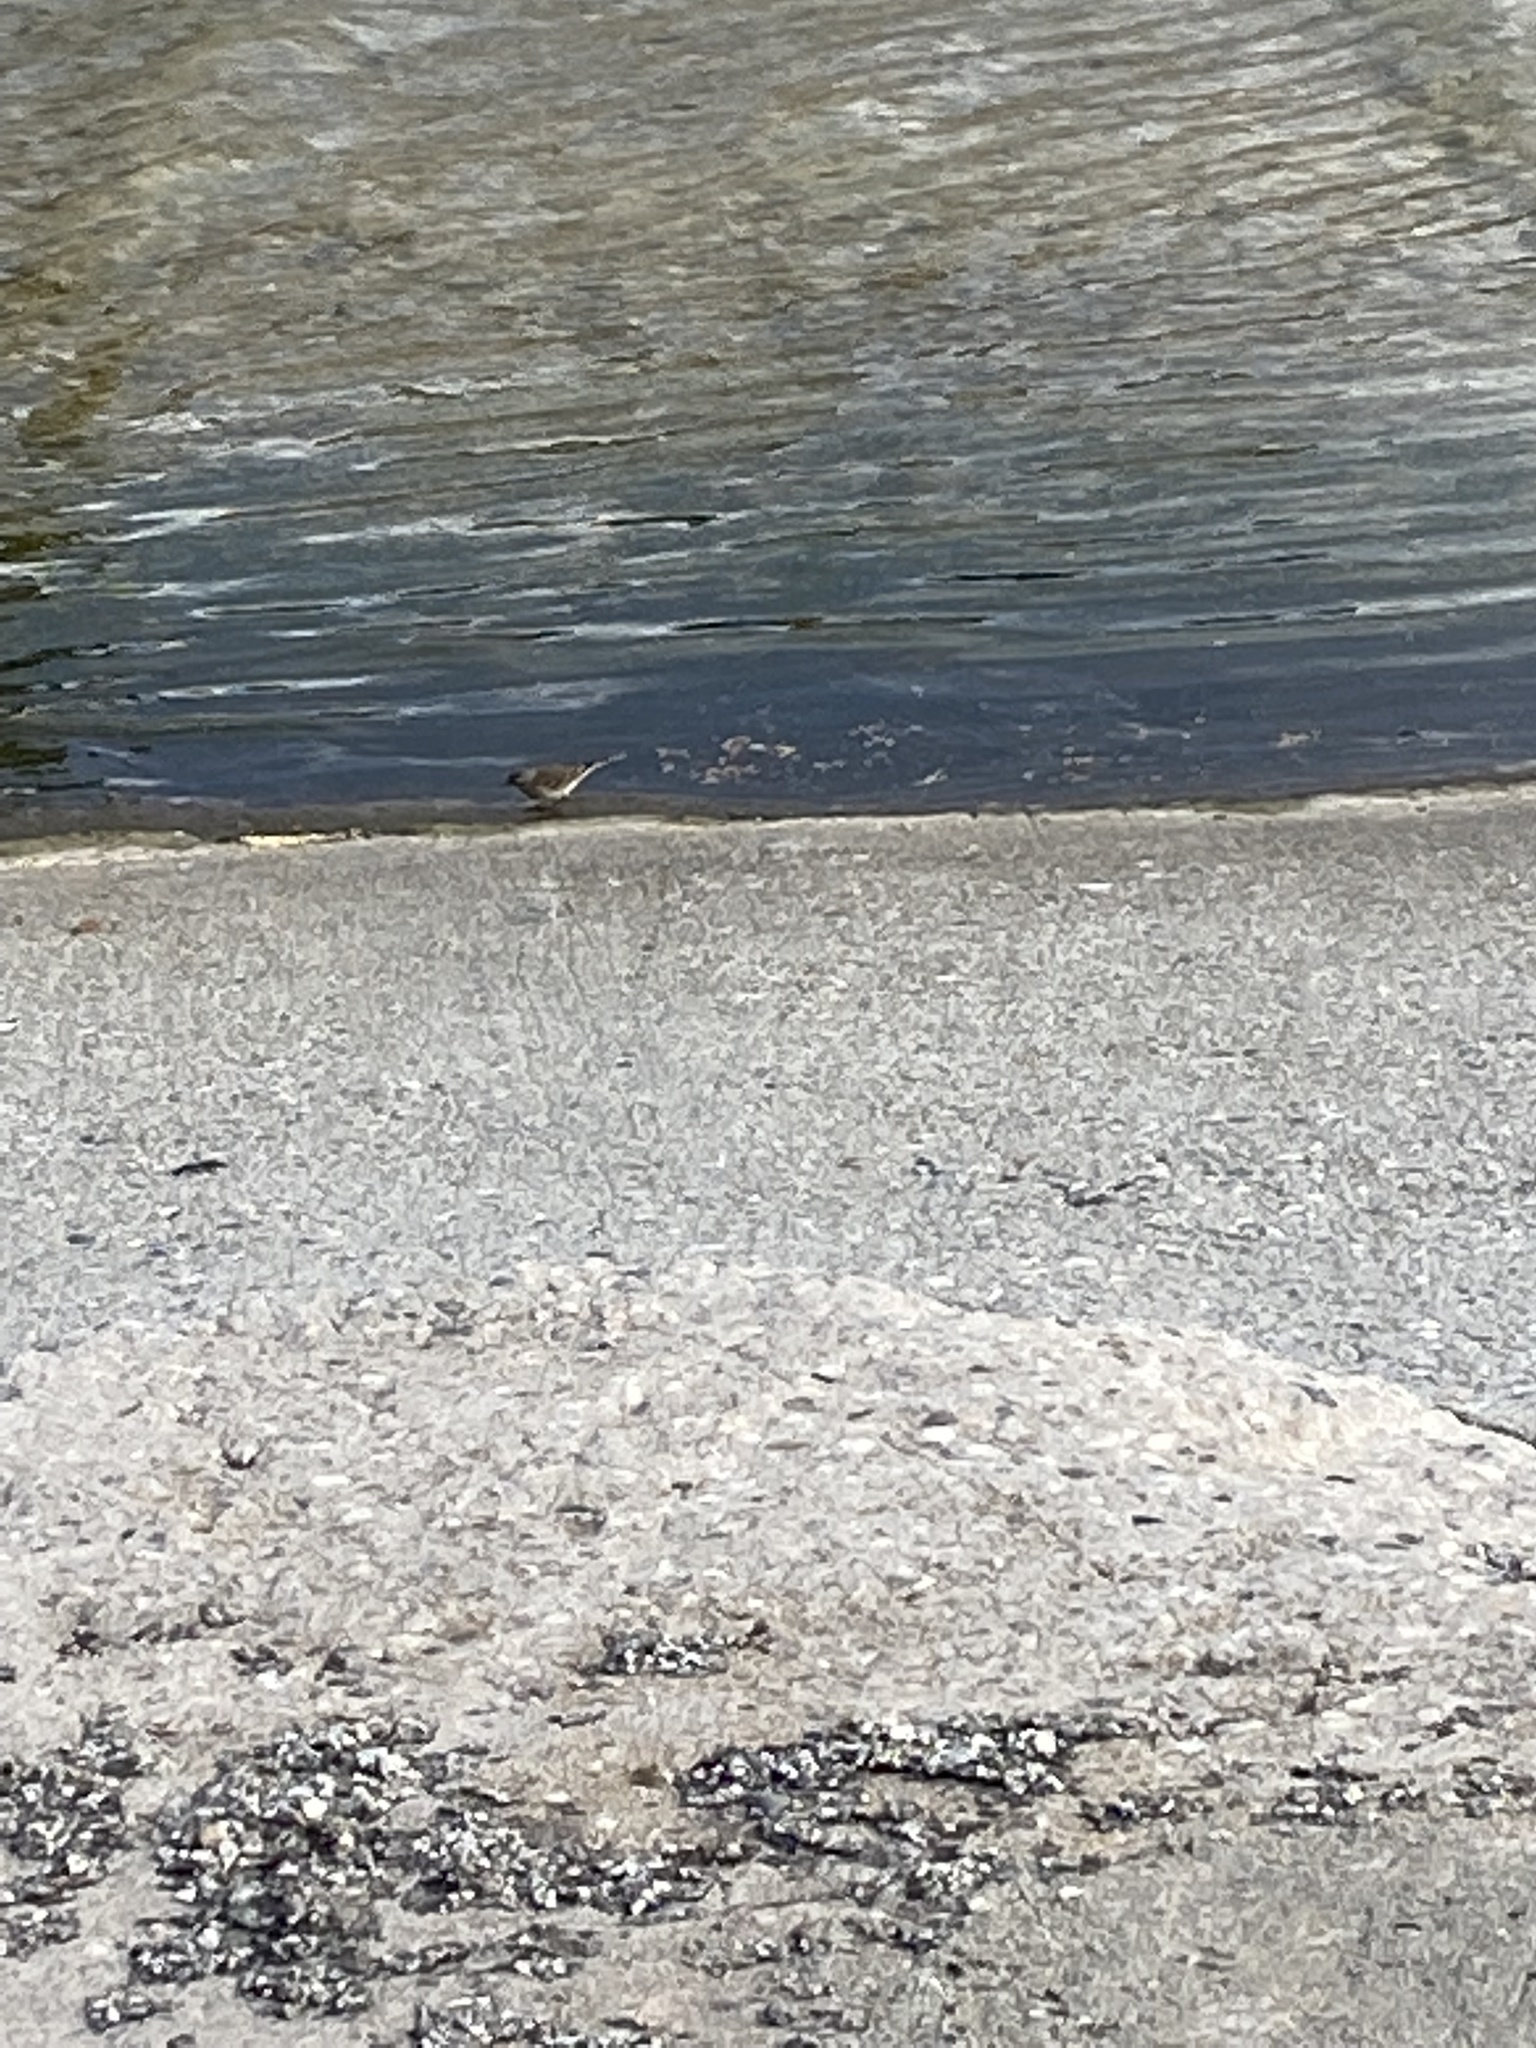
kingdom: Animalia
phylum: Chordata
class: Aves
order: Passeriformes
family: Motacillidae
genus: Anthus
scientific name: Anthus rubescens
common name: Buff-bellied pipit
